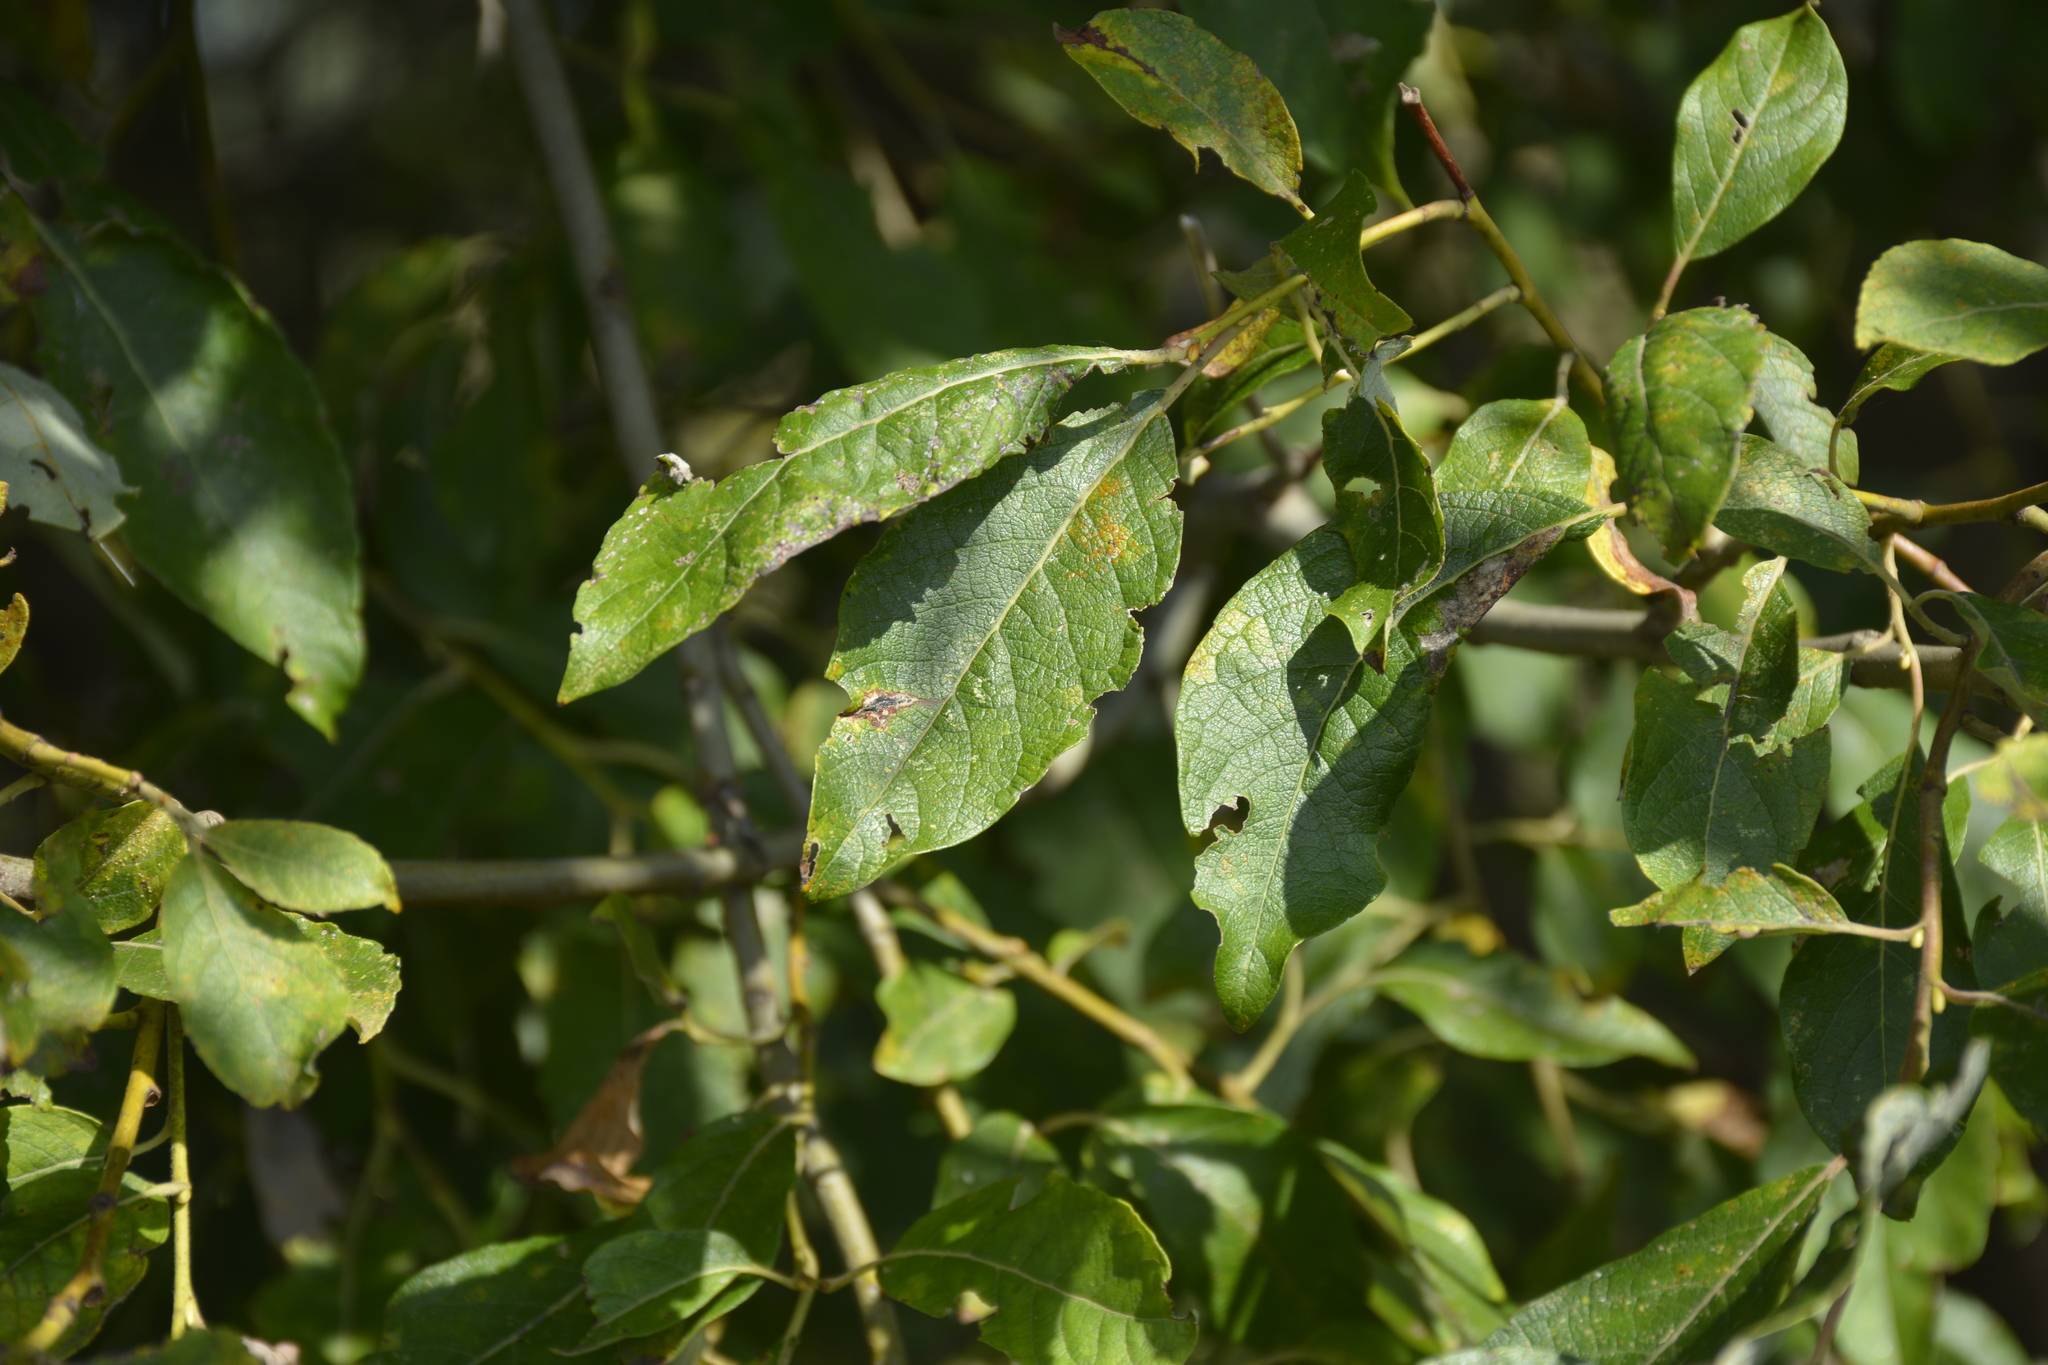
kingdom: Plantae
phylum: Tracheophyta
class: Magnoliopsida
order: Malpighiales
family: Salicaceae
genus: Salix
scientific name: Salix caprea
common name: Goat willow
